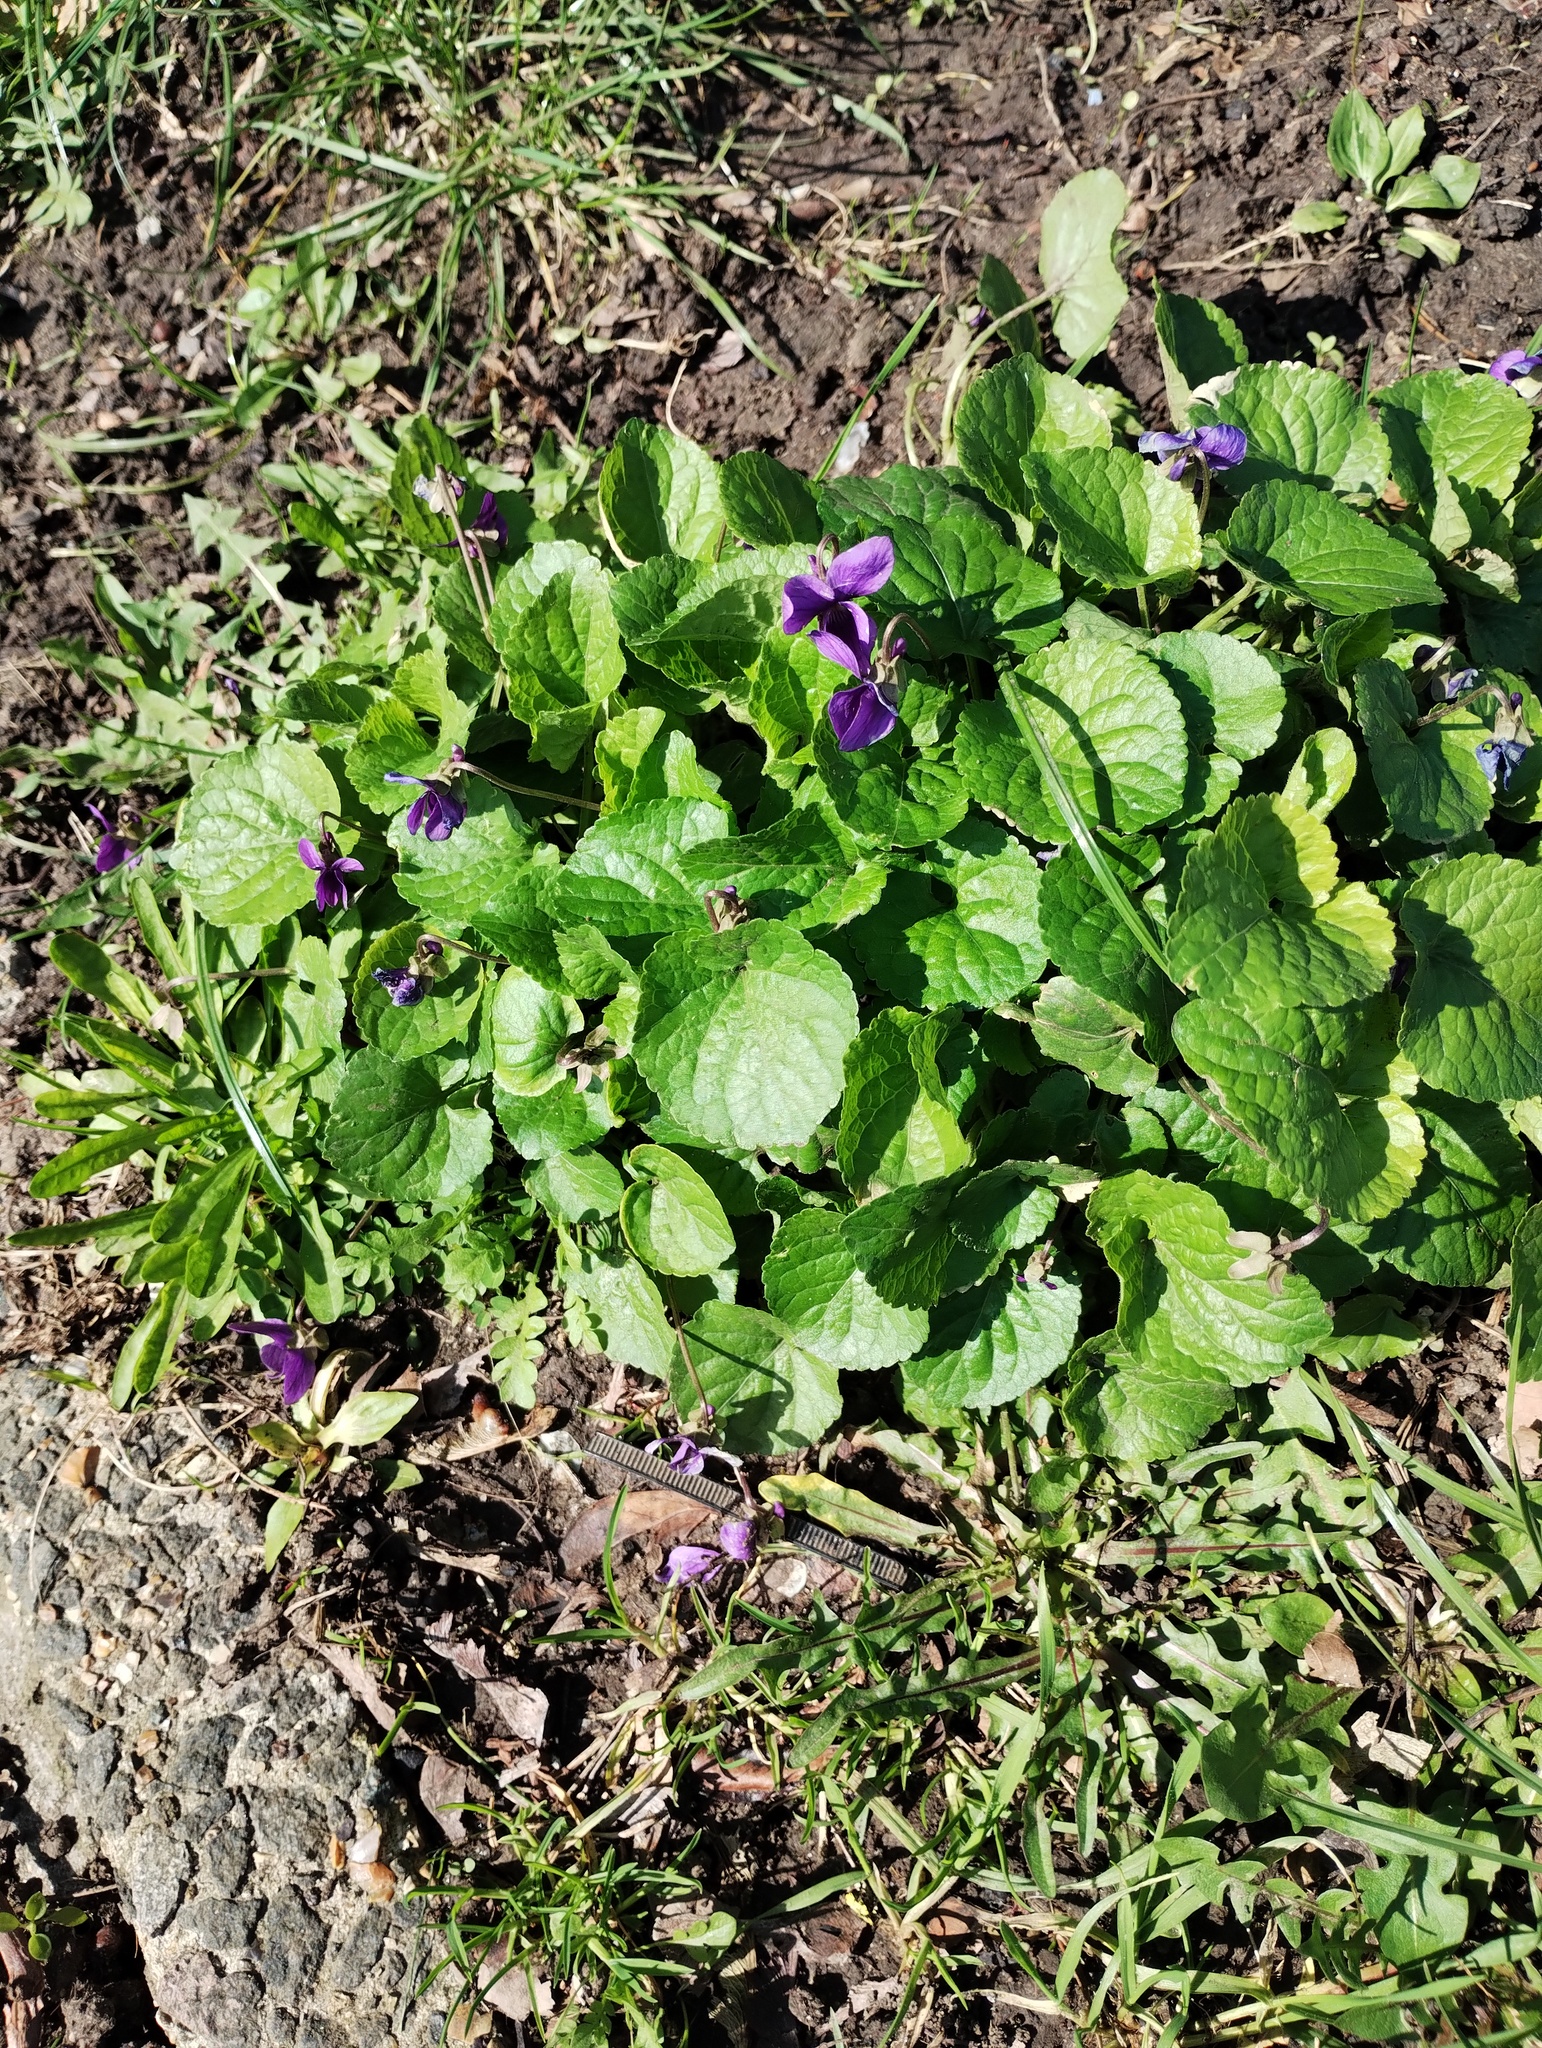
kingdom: Plantae
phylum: Tracheophyta
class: Magnoliopsida
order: Malpighiales
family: Violaceae
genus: Viola
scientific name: Viola odorata
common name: Sweet violet
